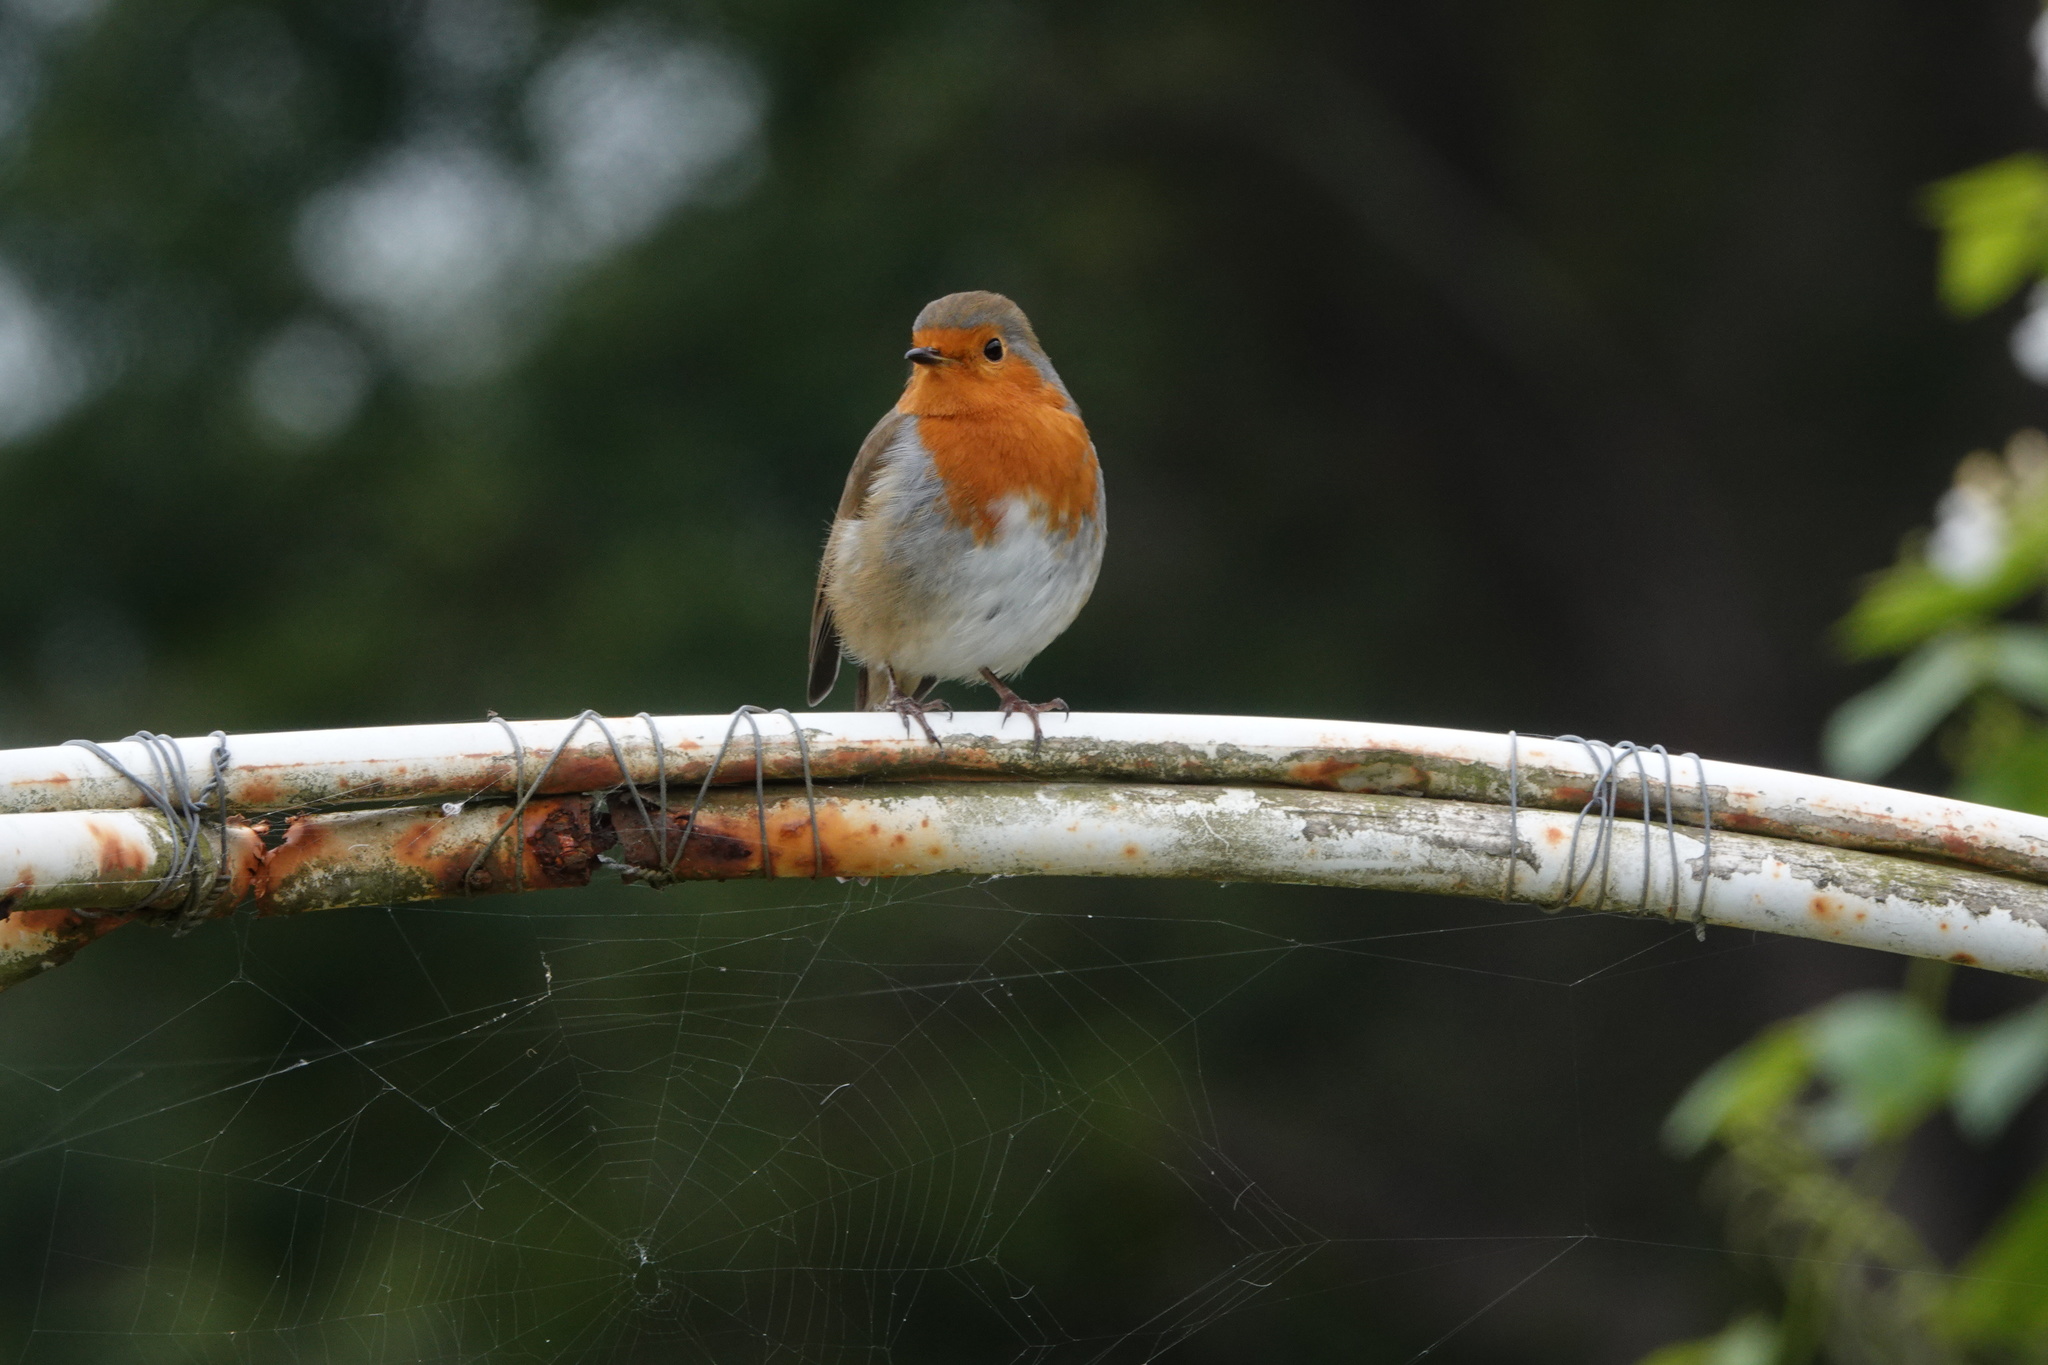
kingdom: Animalia
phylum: Chordata
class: Aves
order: Passeriformes
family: Muscicapidae
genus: Erithacus
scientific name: Erithacus rubecula
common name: European robin
